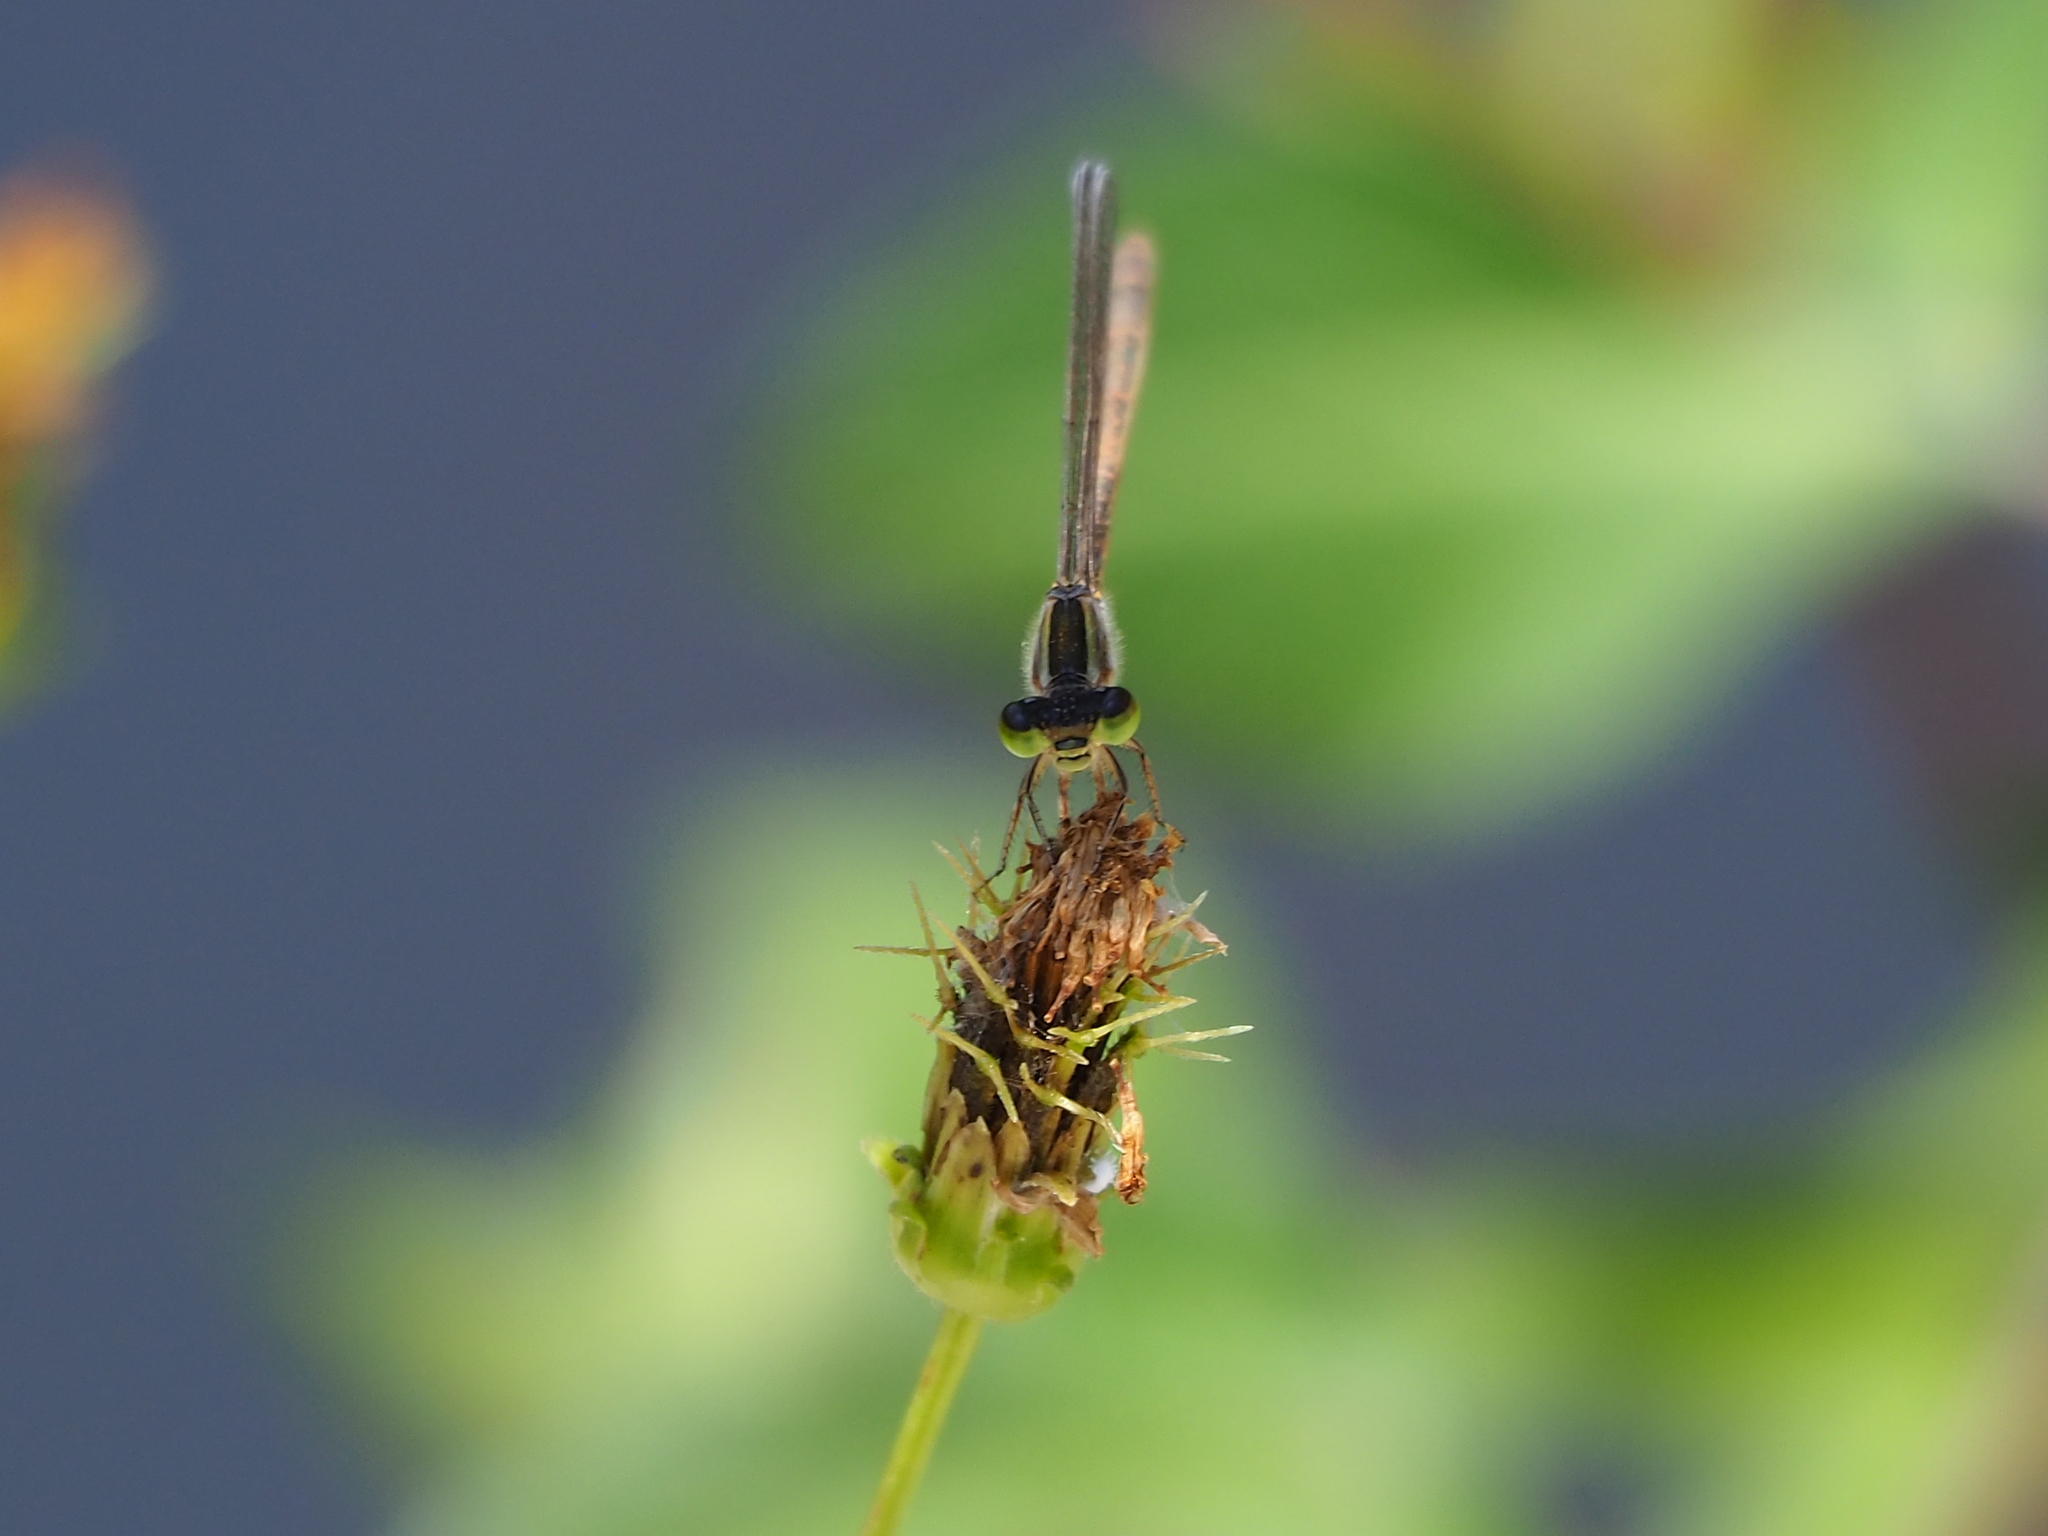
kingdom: Animalia
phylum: Arthropoda
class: Insecta
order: Odonata
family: Coenagrionidae
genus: Ischnura
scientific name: Ischnura senegalensis
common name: Tropical bluetail
